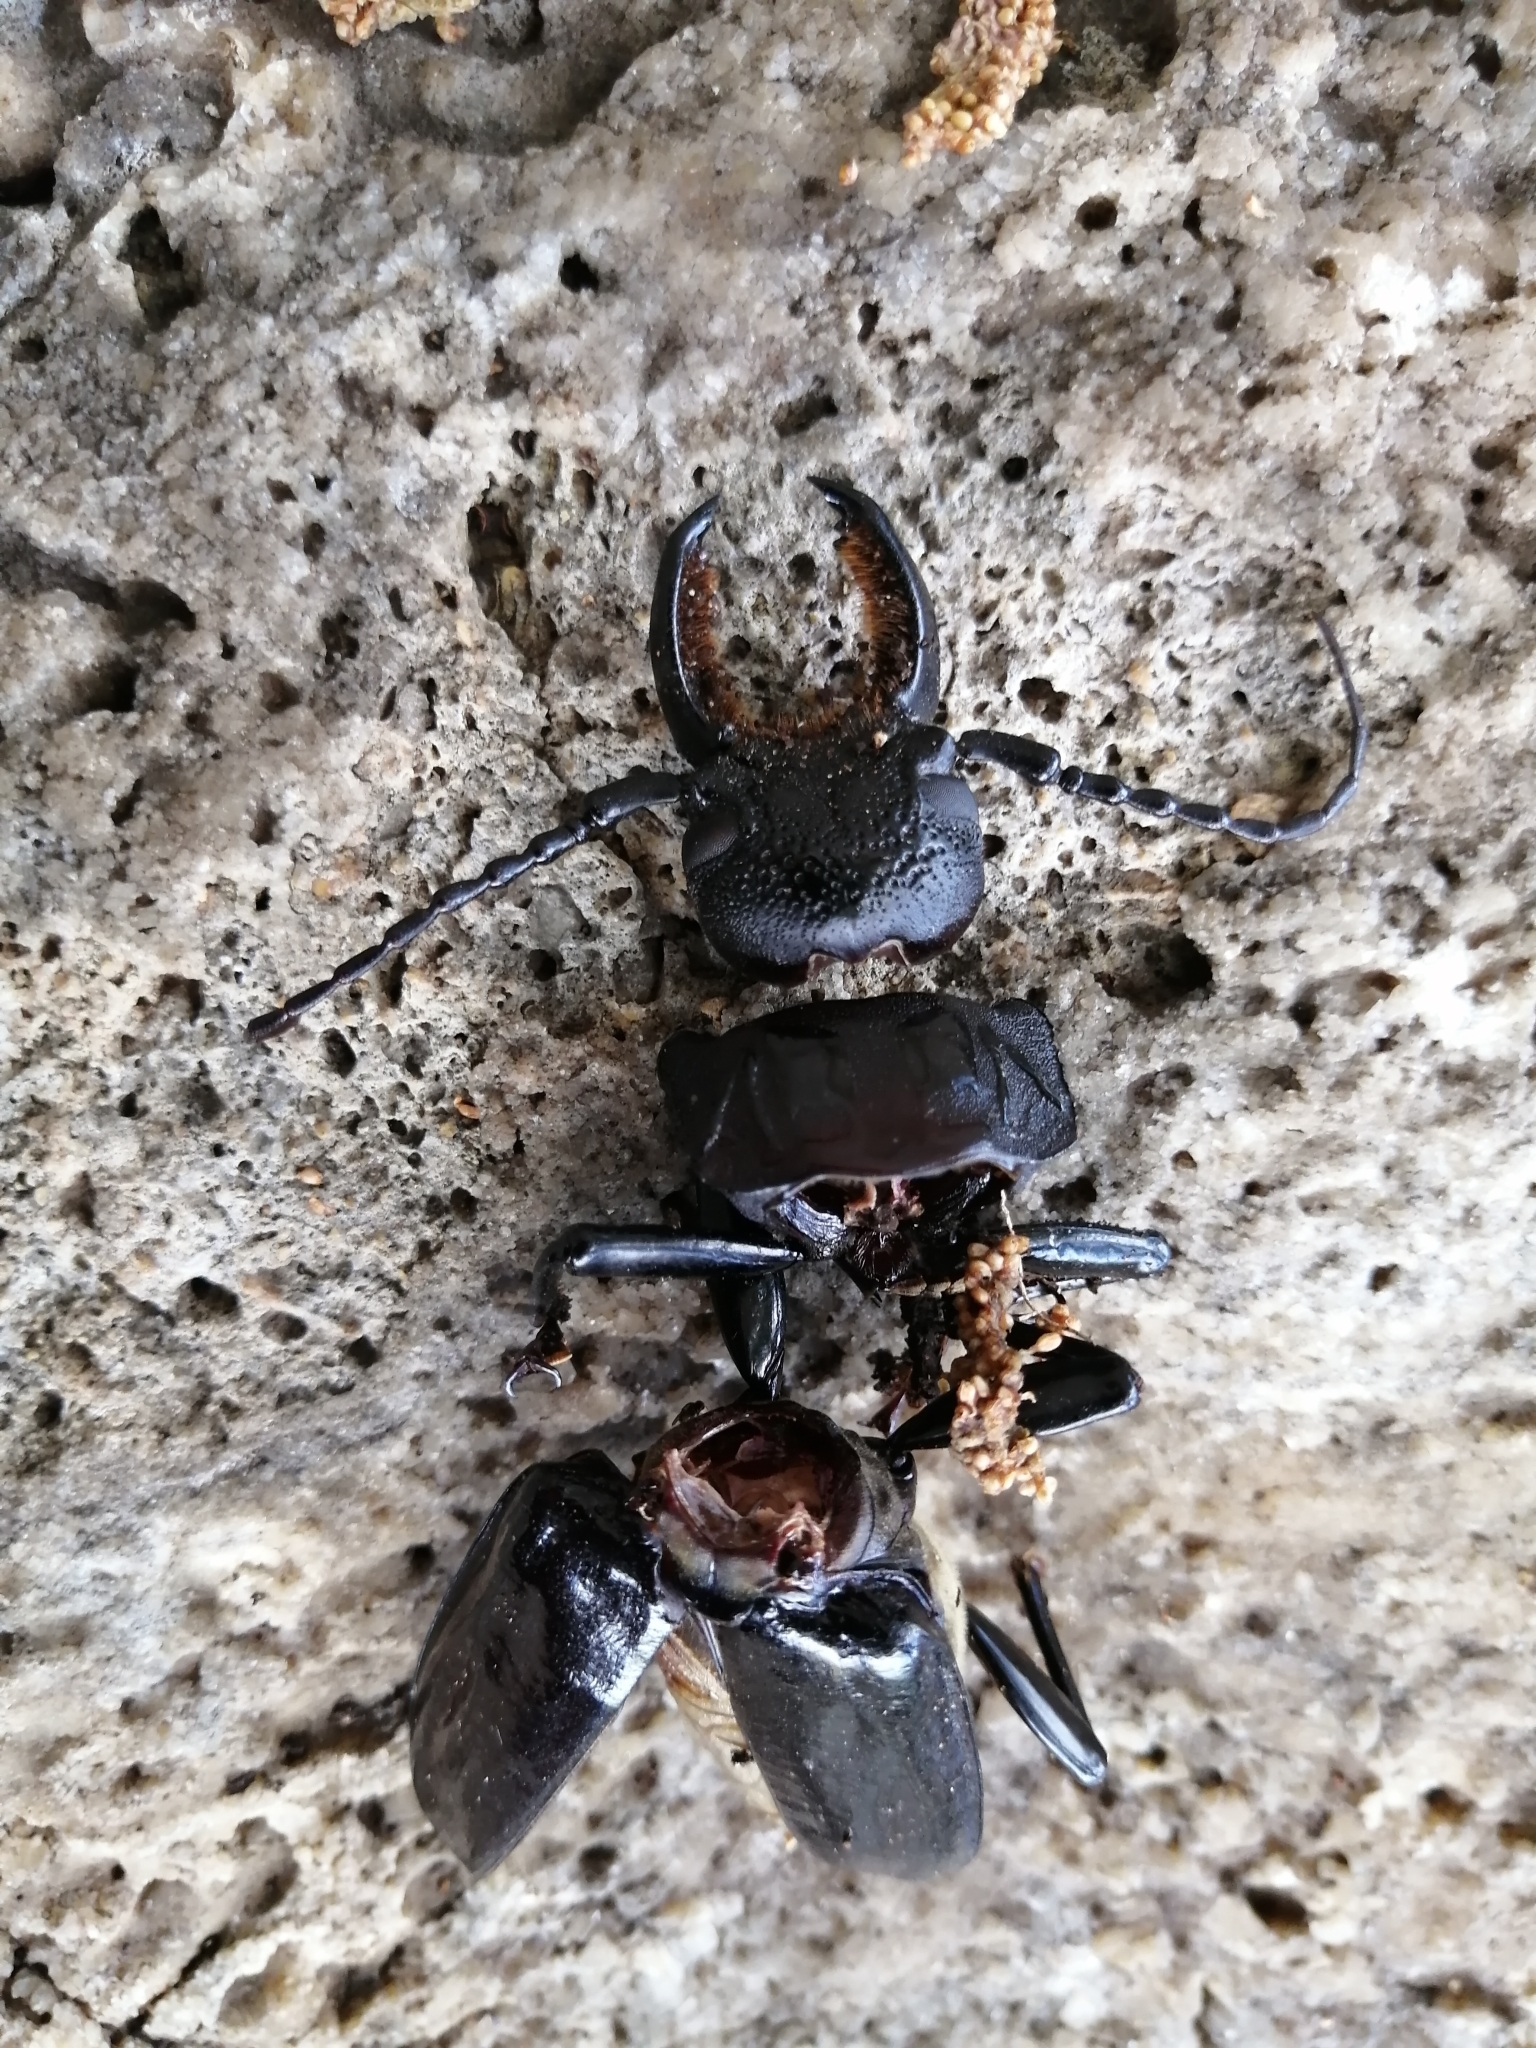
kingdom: Animalia
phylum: Arthropoda
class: Insecta
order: Coleoptera
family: Cerambycidae
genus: Mallodon
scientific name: Mallodon chevrolatii
